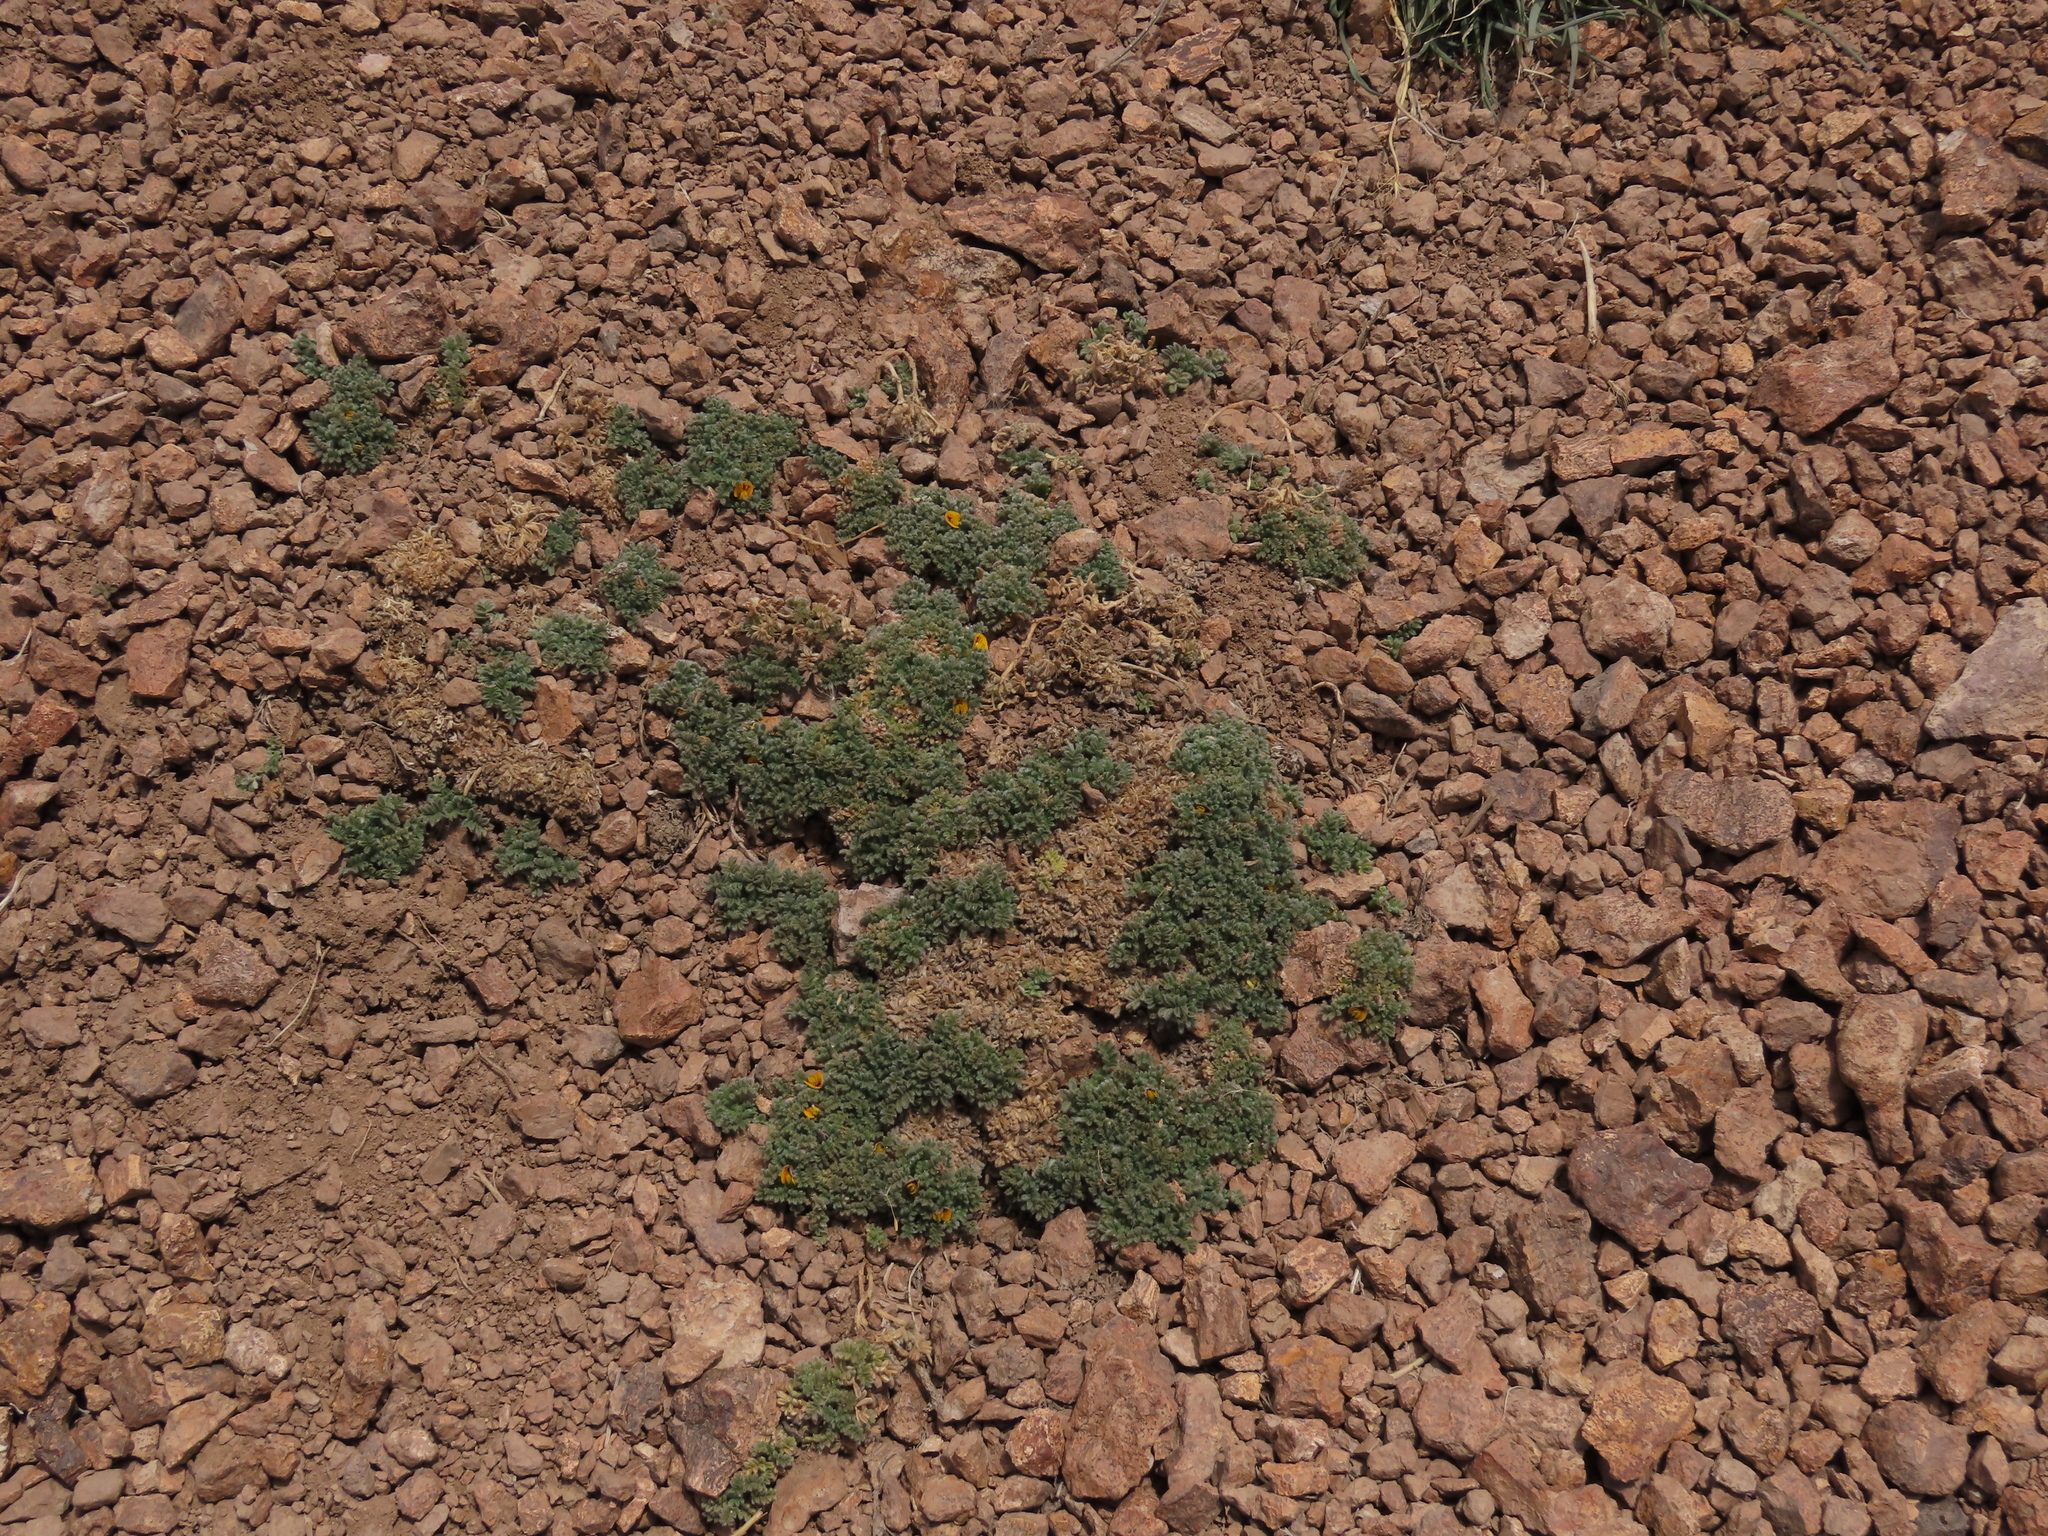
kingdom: Plantae
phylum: Tracheophyta
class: Magnoliopsida
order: Fabales
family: Fabaceae
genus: Adesmia
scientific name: Adesmia glomerula
